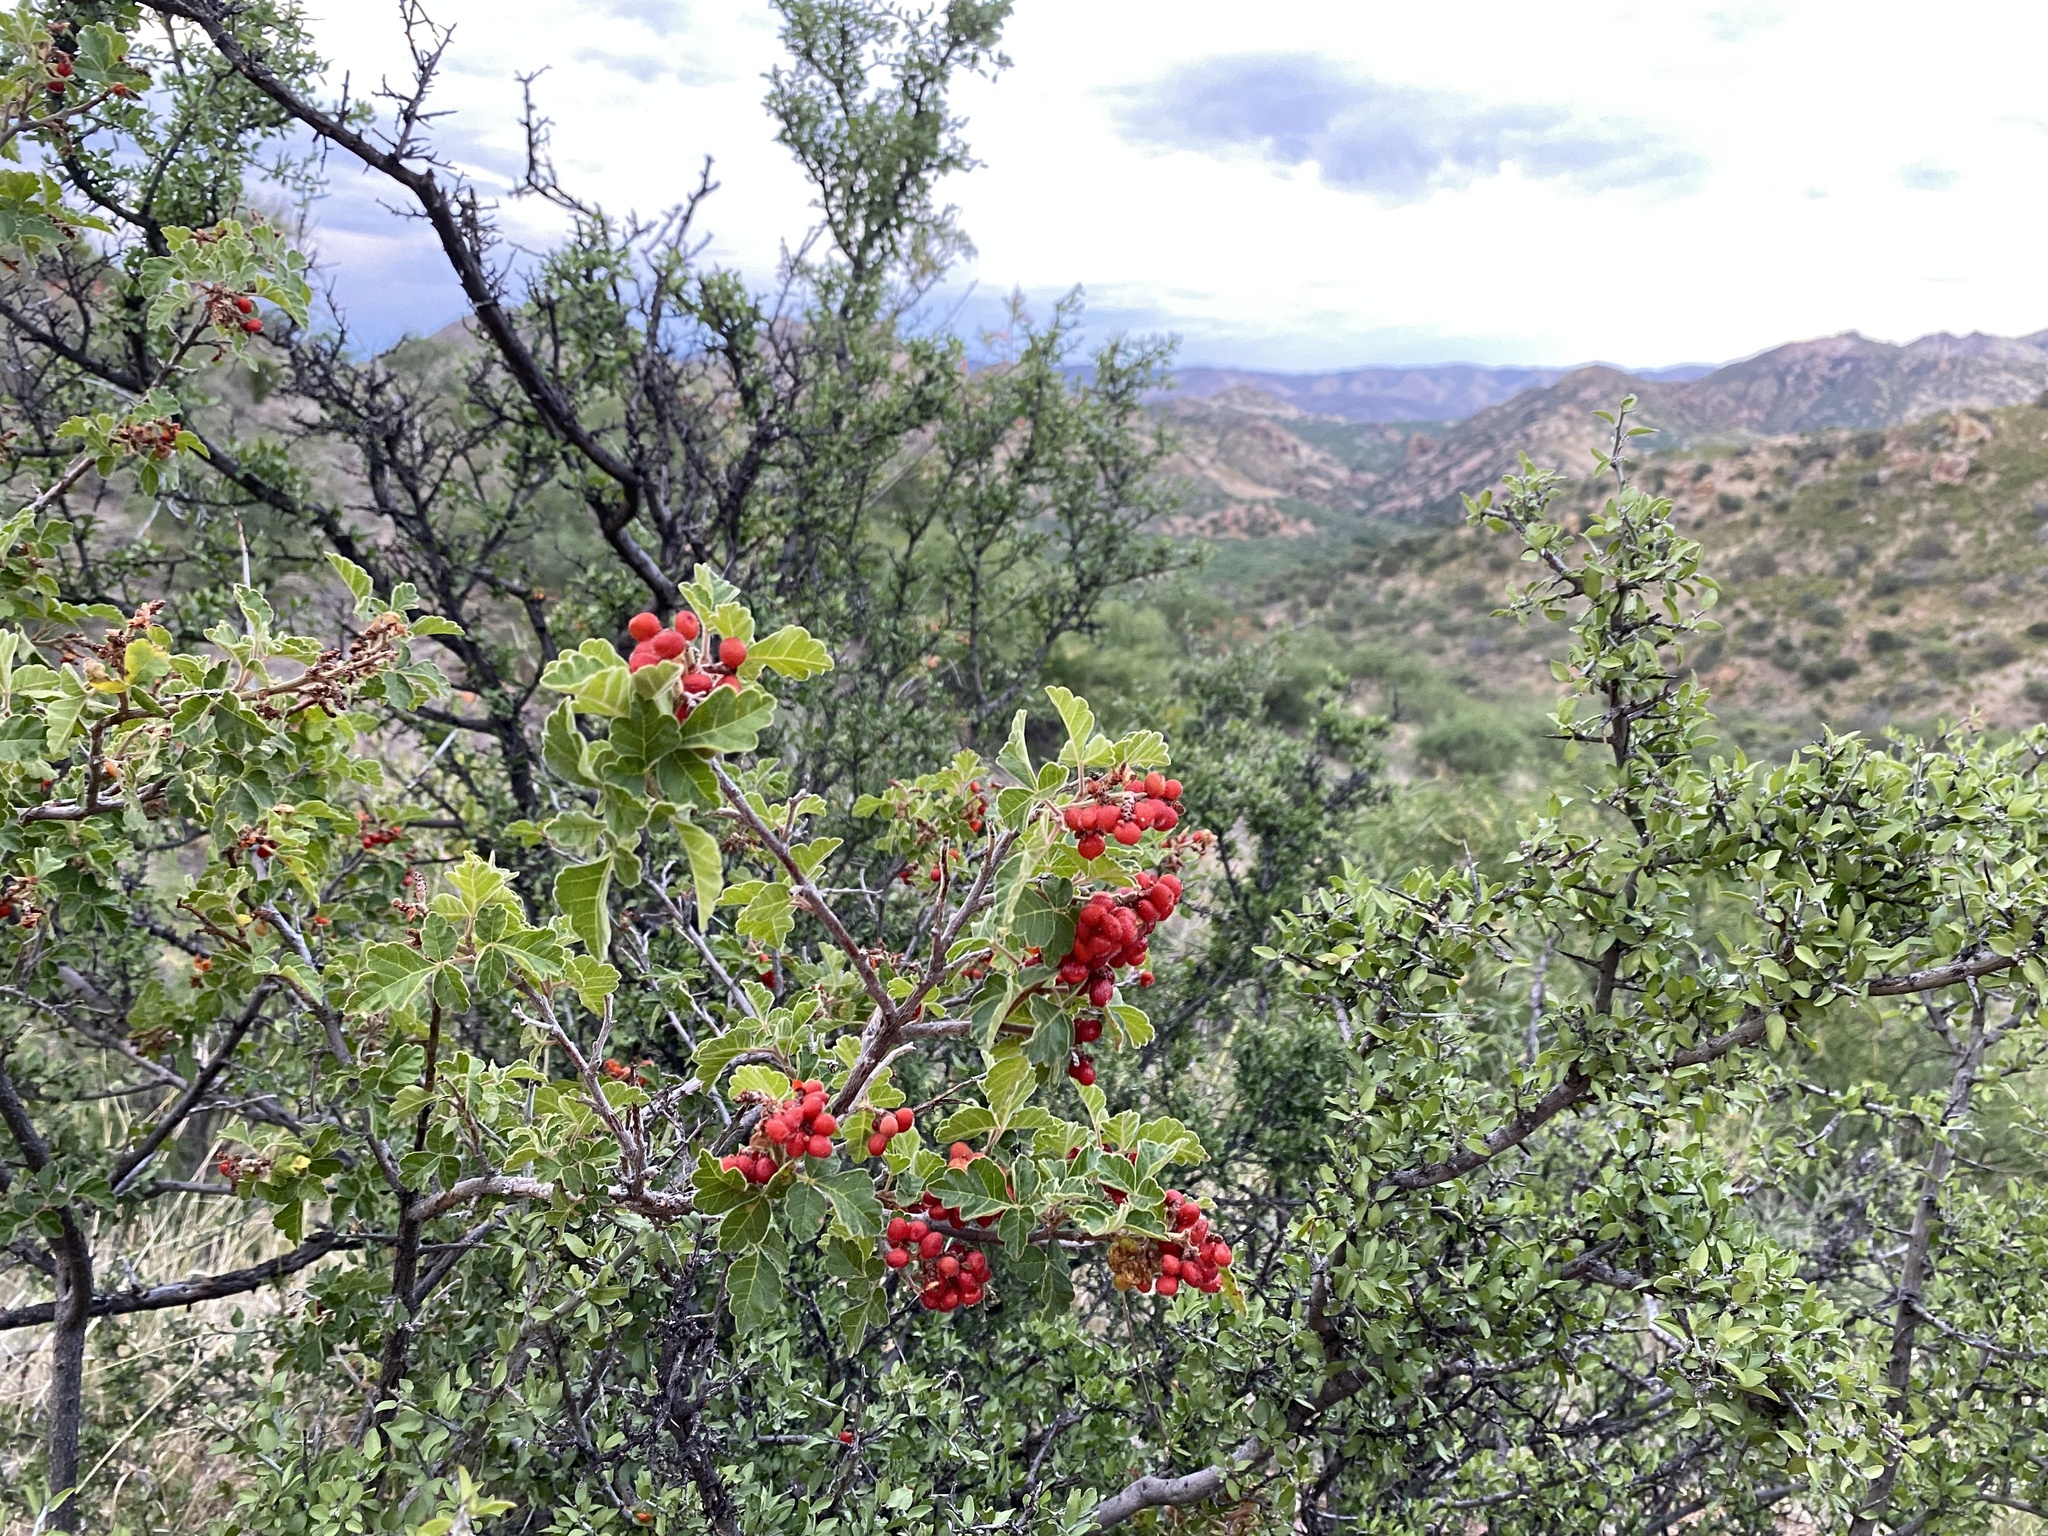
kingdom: Plantae
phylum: Tracheophyta
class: Magnoliopsida
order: Sapindales
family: Anacardiaceae
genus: Rhus
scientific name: Rhus aromatica
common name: Aromatic sumac
